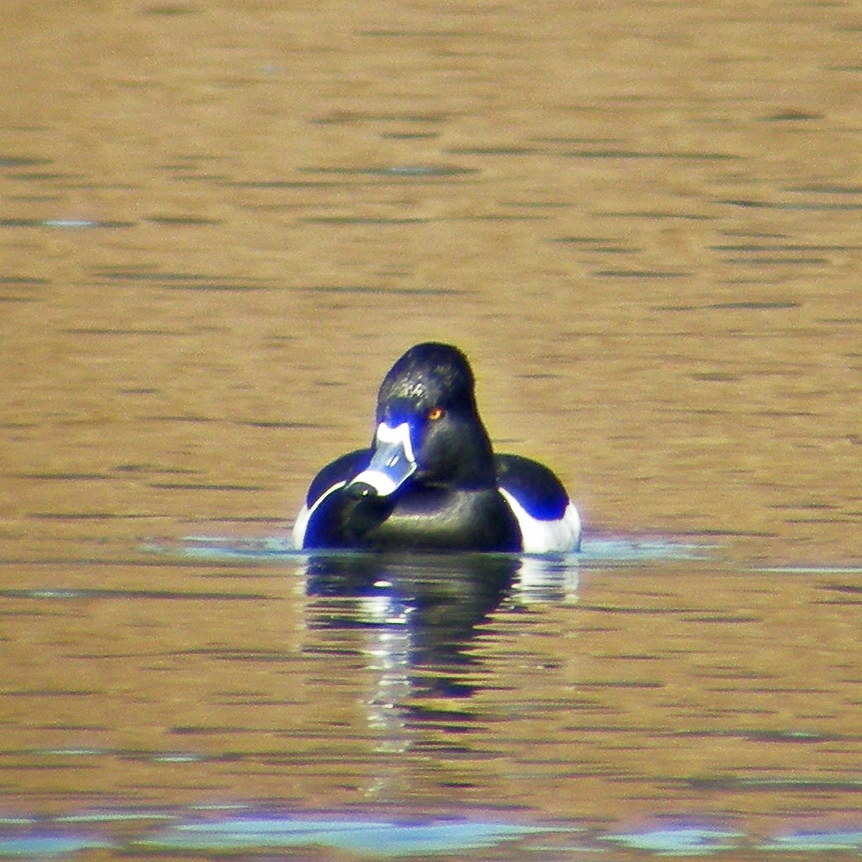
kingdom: Animalia
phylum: Chordata
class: Aves
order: Anseriformes
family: Anatidae
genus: Aythya
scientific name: Aythya collaris
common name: Ring-necked duck
